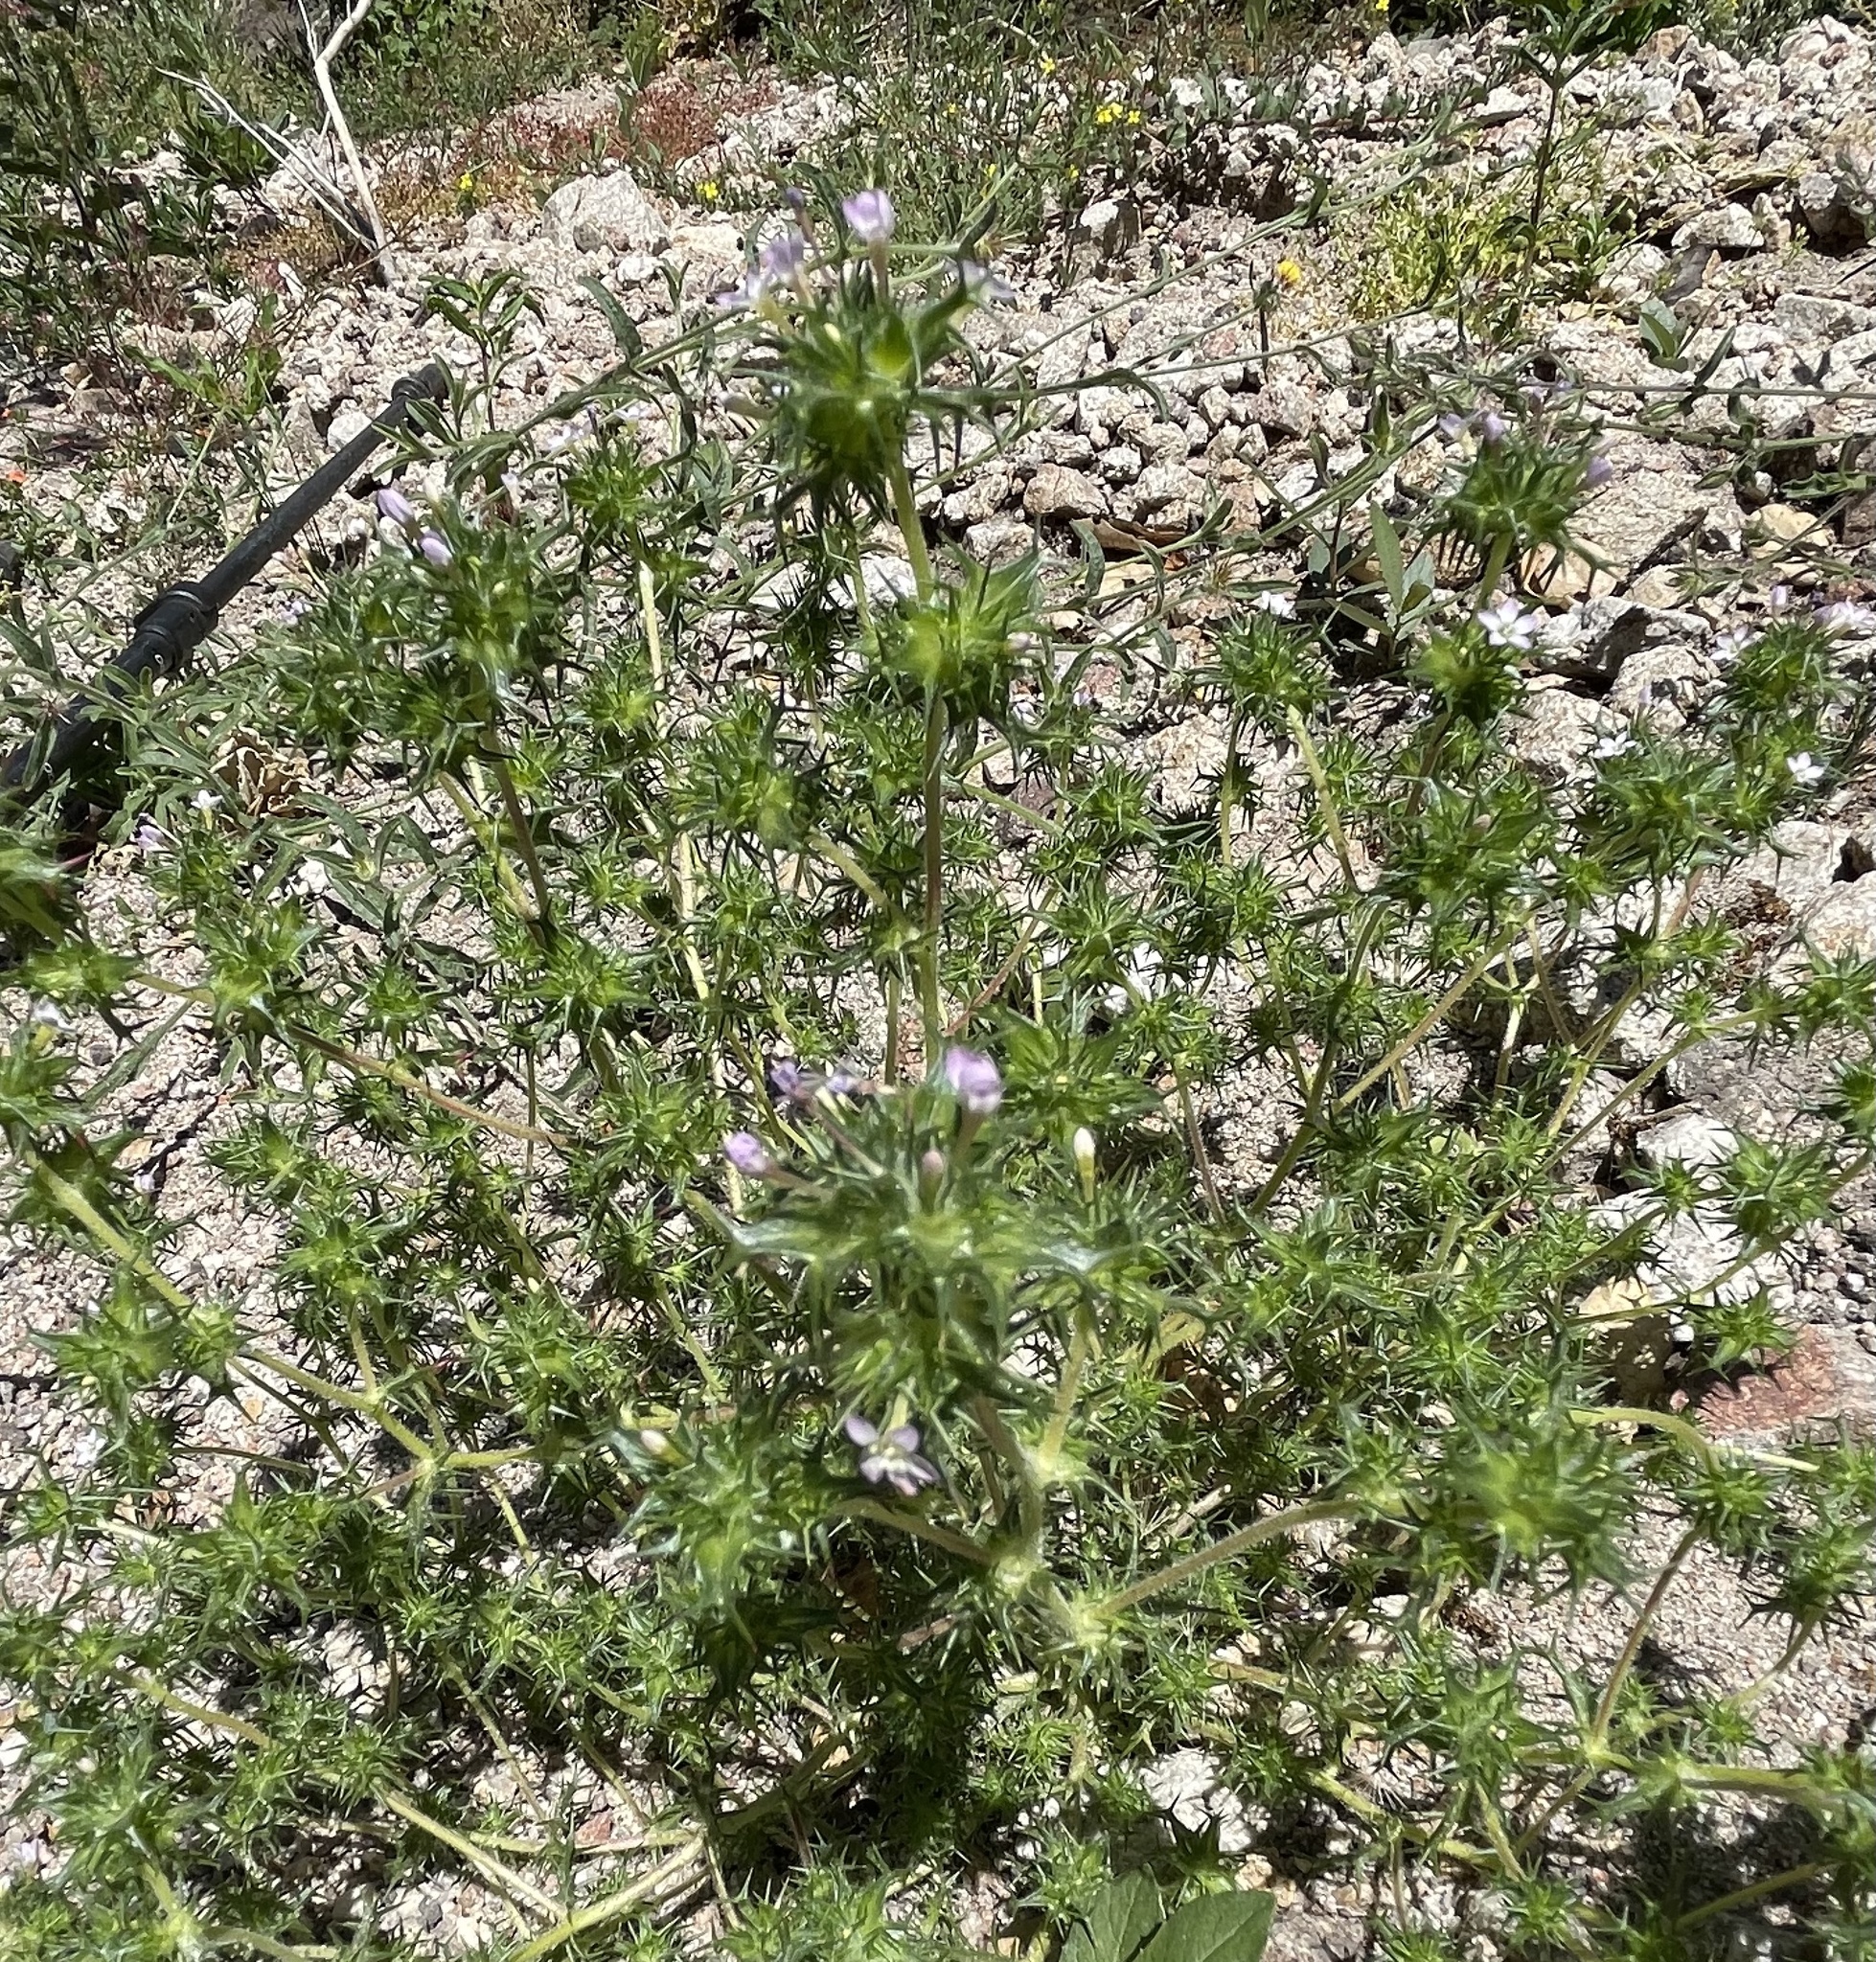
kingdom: Plantae
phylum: Tracheophyta
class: Magnoliopsida
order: Ericales
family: Polemoniaceae
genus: Navarretia
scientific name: Navarretia hamata
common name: Hooked navarretia
